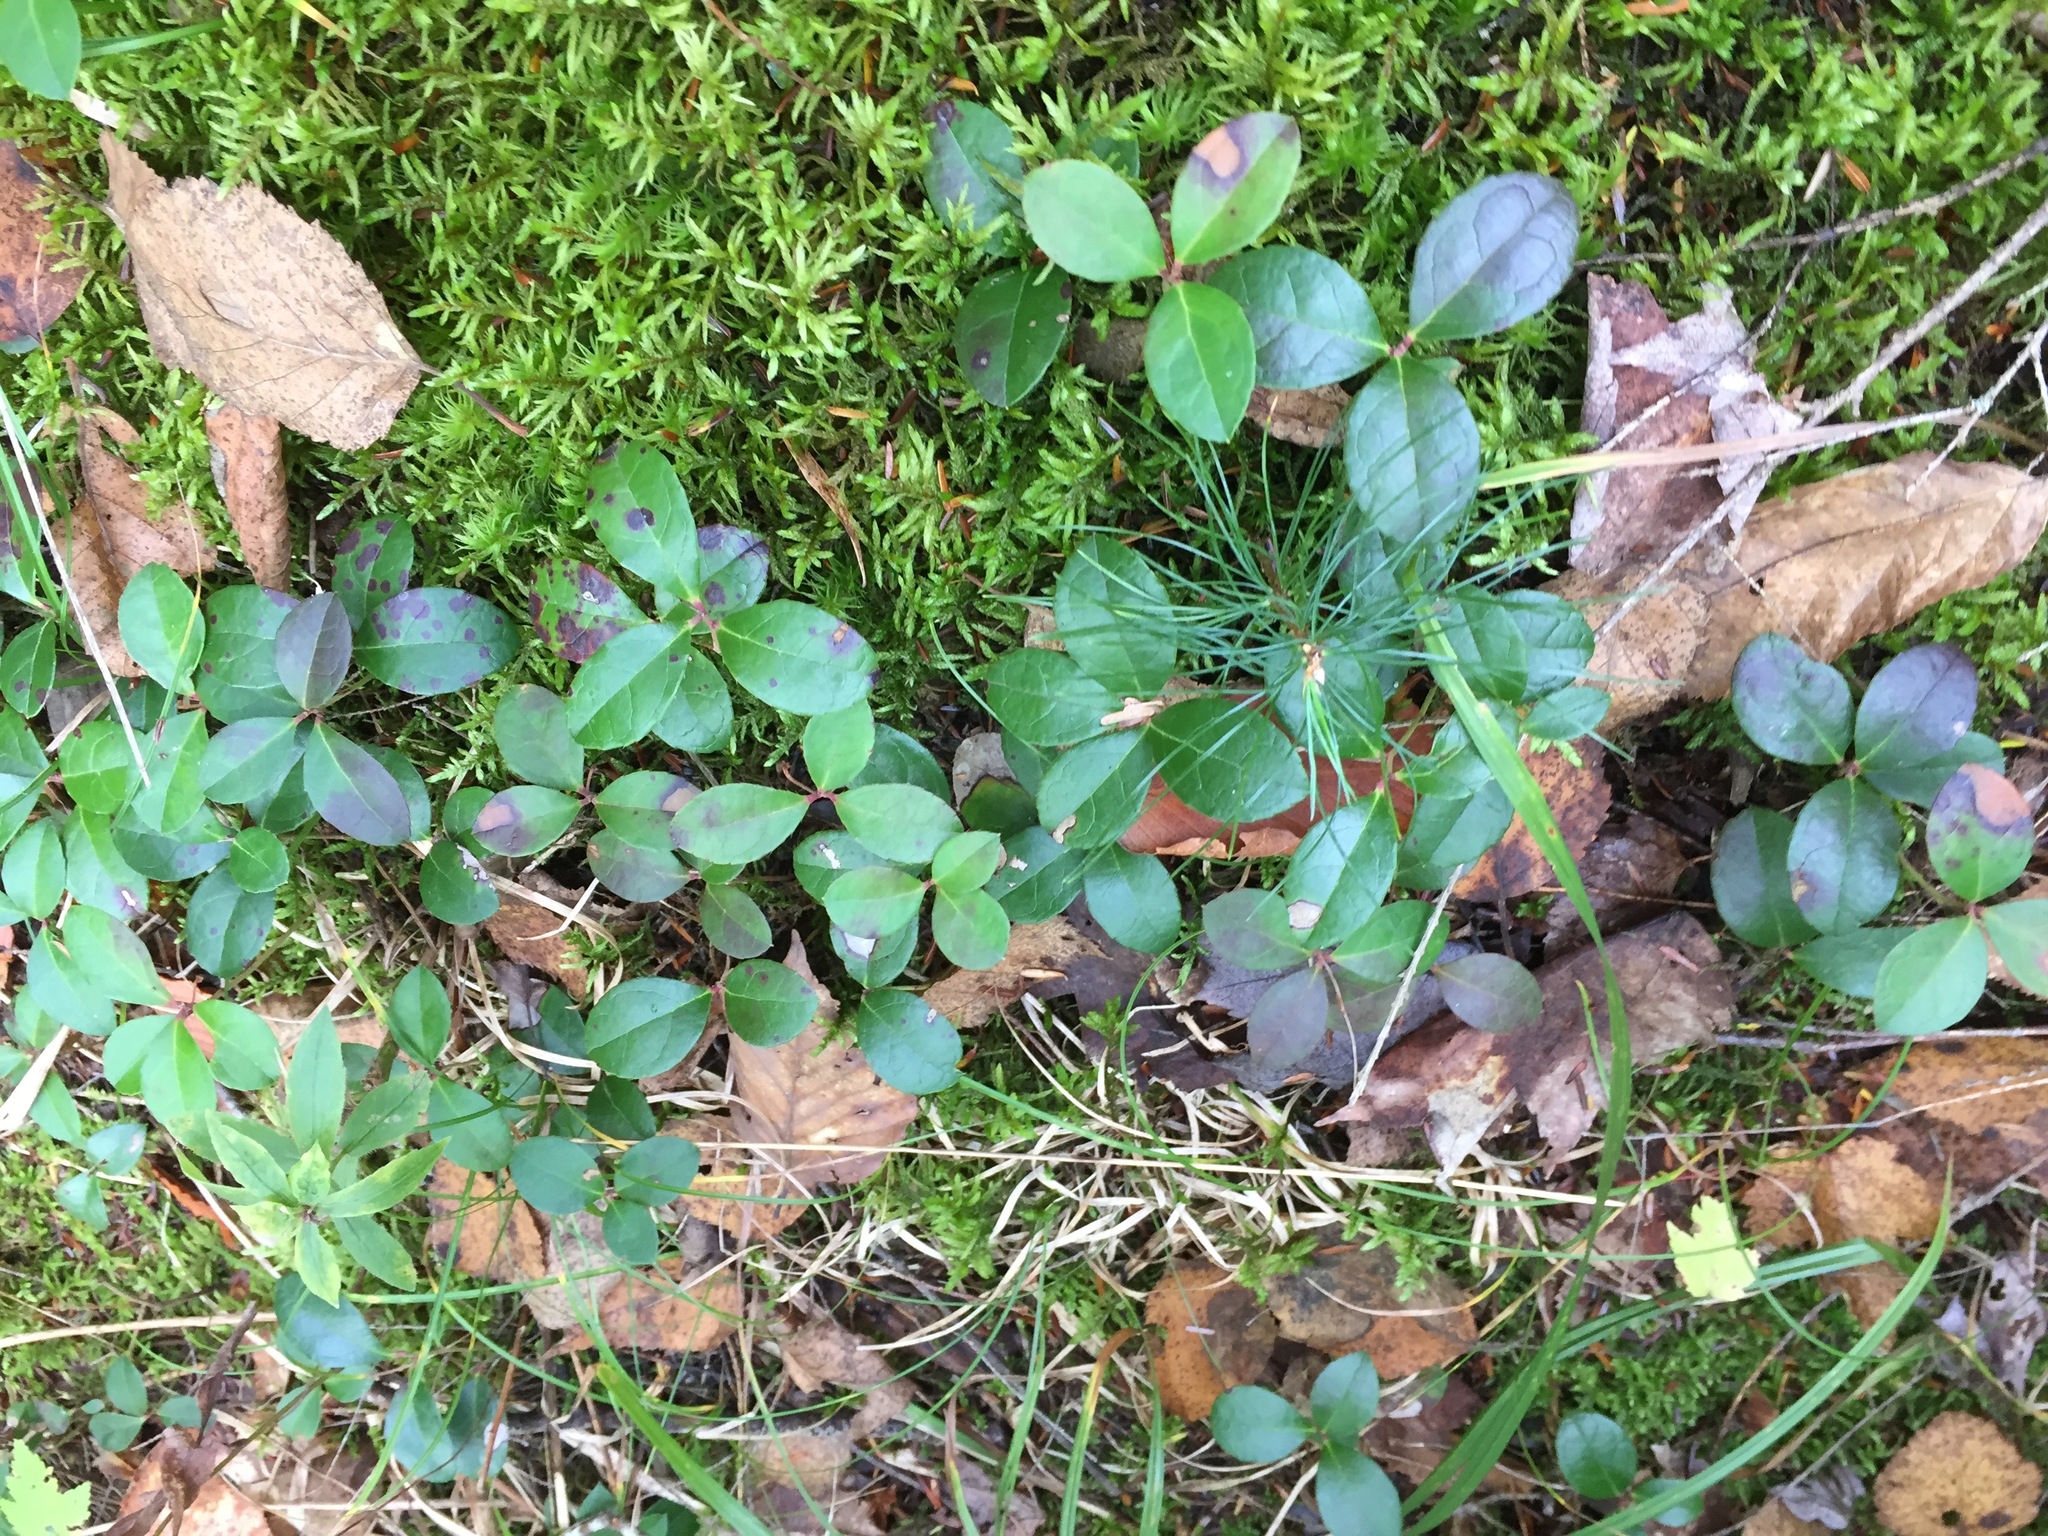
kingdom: Plantae
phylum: Tracheophyta
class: Magnoliopsida
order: Ericales
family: Ericaceae
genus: Gaultheria
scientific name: Gaultheria procumbens
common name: Checkerberry
